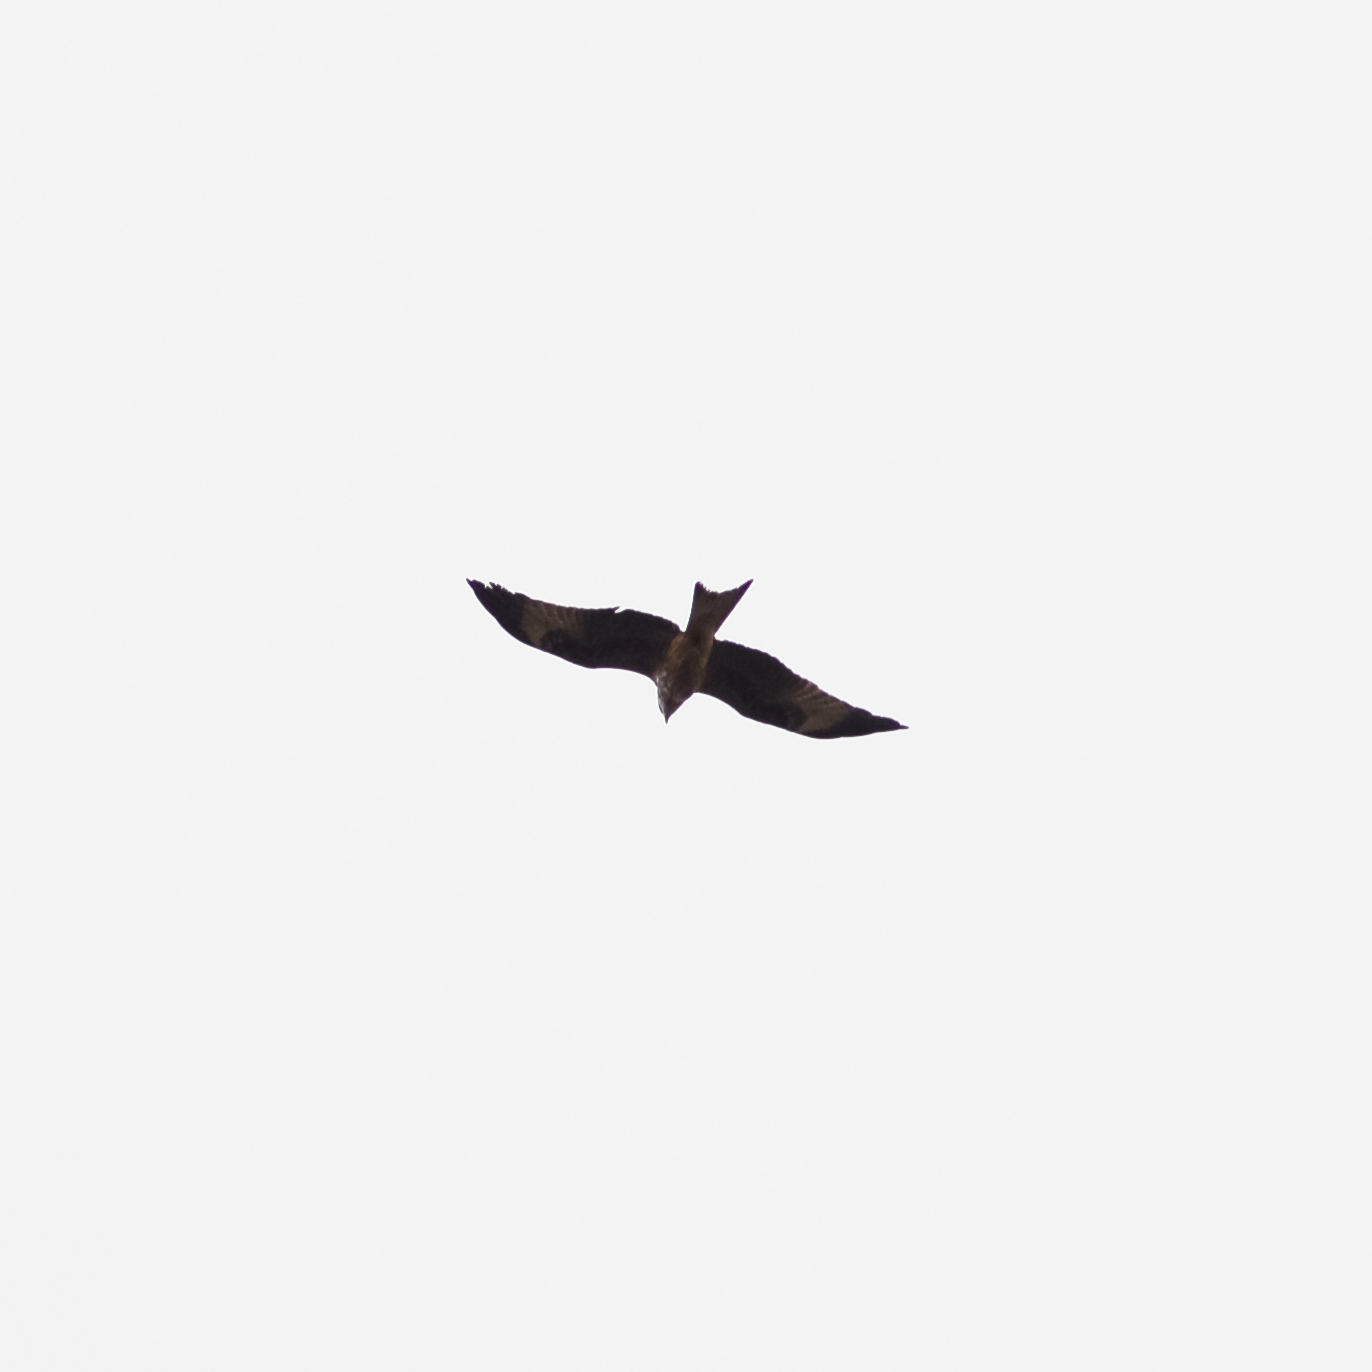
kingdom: Animalia
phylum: Chordata
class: Aves
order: Accipitriformes
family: Accipitridae
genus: Milvus
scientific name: Milvus milvus
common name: Red kite
